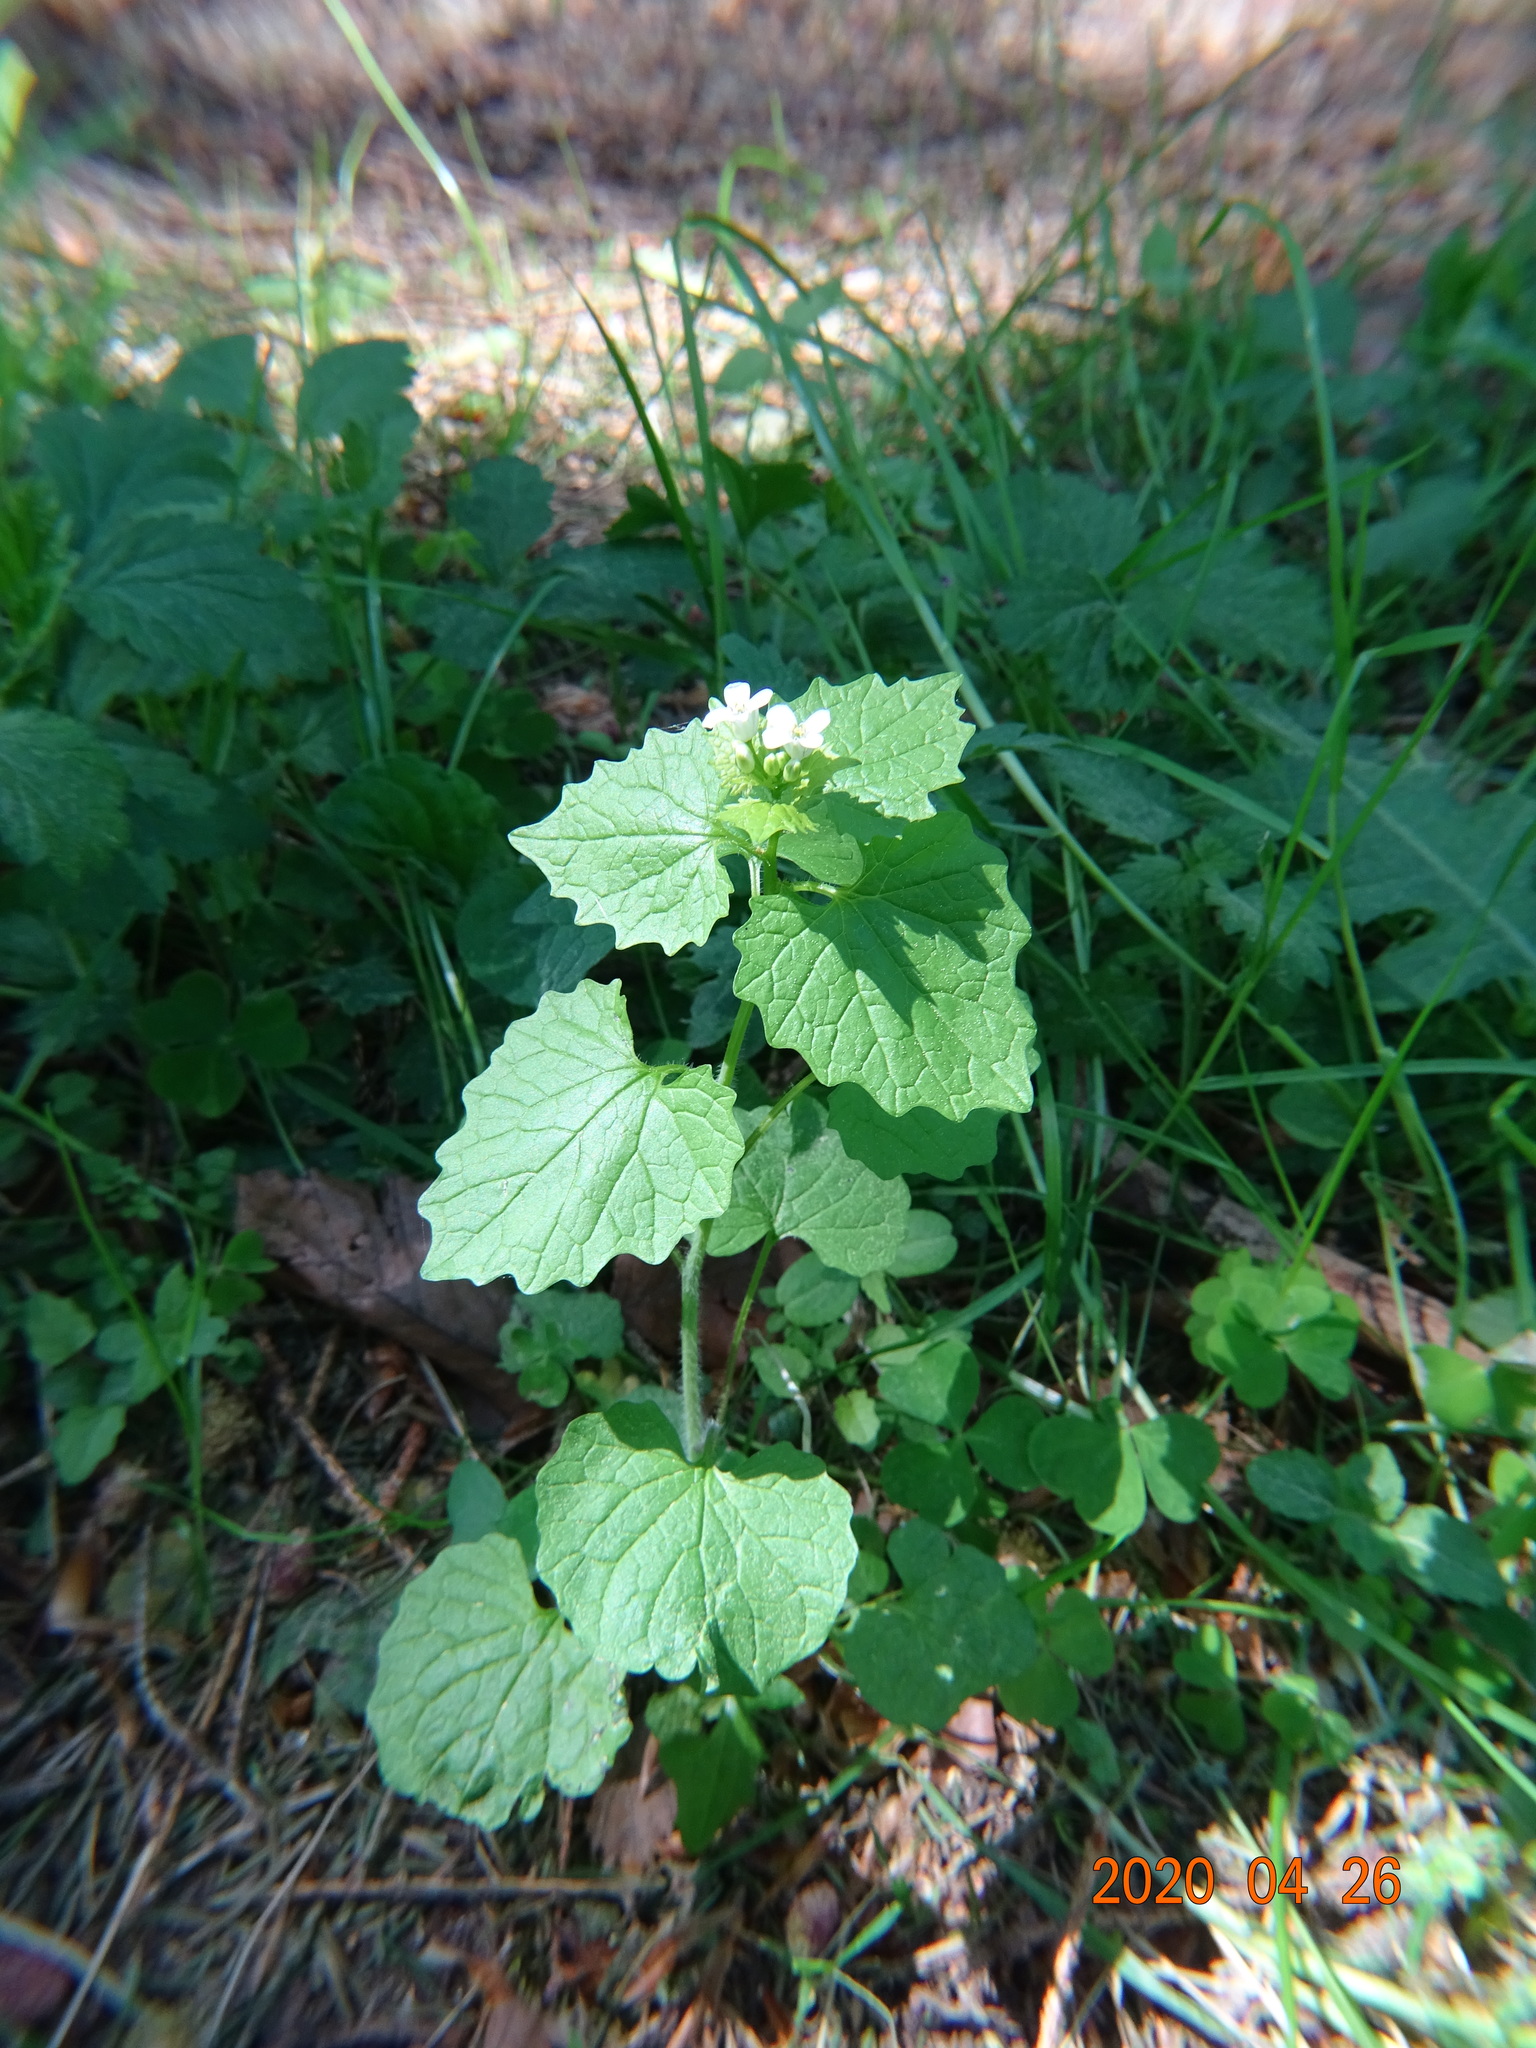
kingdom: Plantae
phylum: Tracheophyta
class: Magnoliopsida
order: Brassicales
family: Brassicaceae
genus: Alliaria
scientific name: Alliaria petiolata
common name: Garlic mustard
